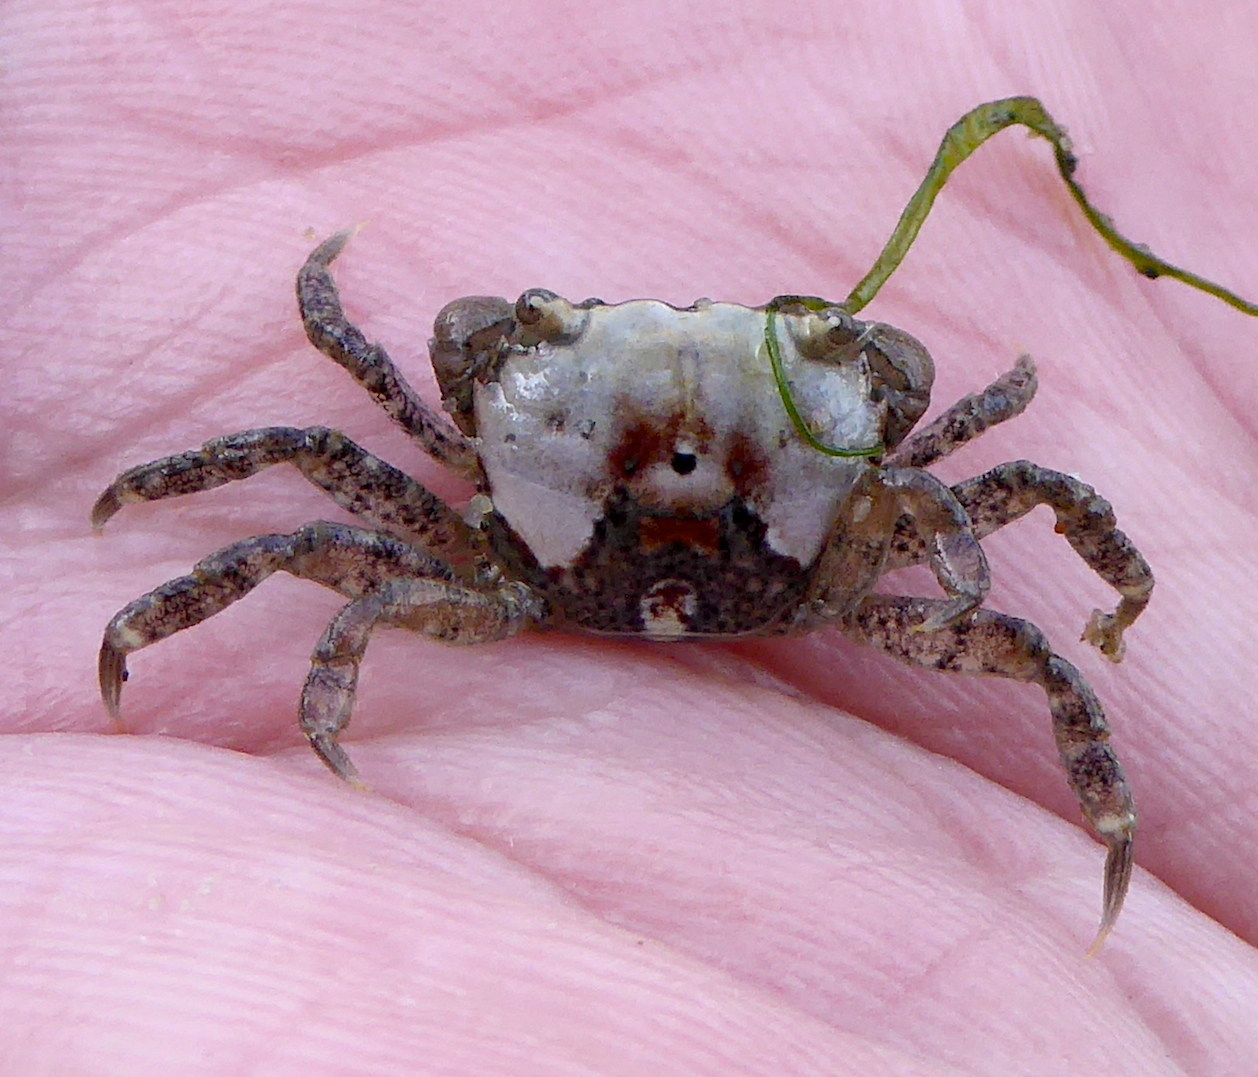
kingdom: Animalia
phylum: Arthropoda
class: Malacostraca
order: Decapoda
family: Varunidae
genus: Hemigrapsus
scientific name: Hemigrapsus oregonensis
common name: Yellow shore crab
